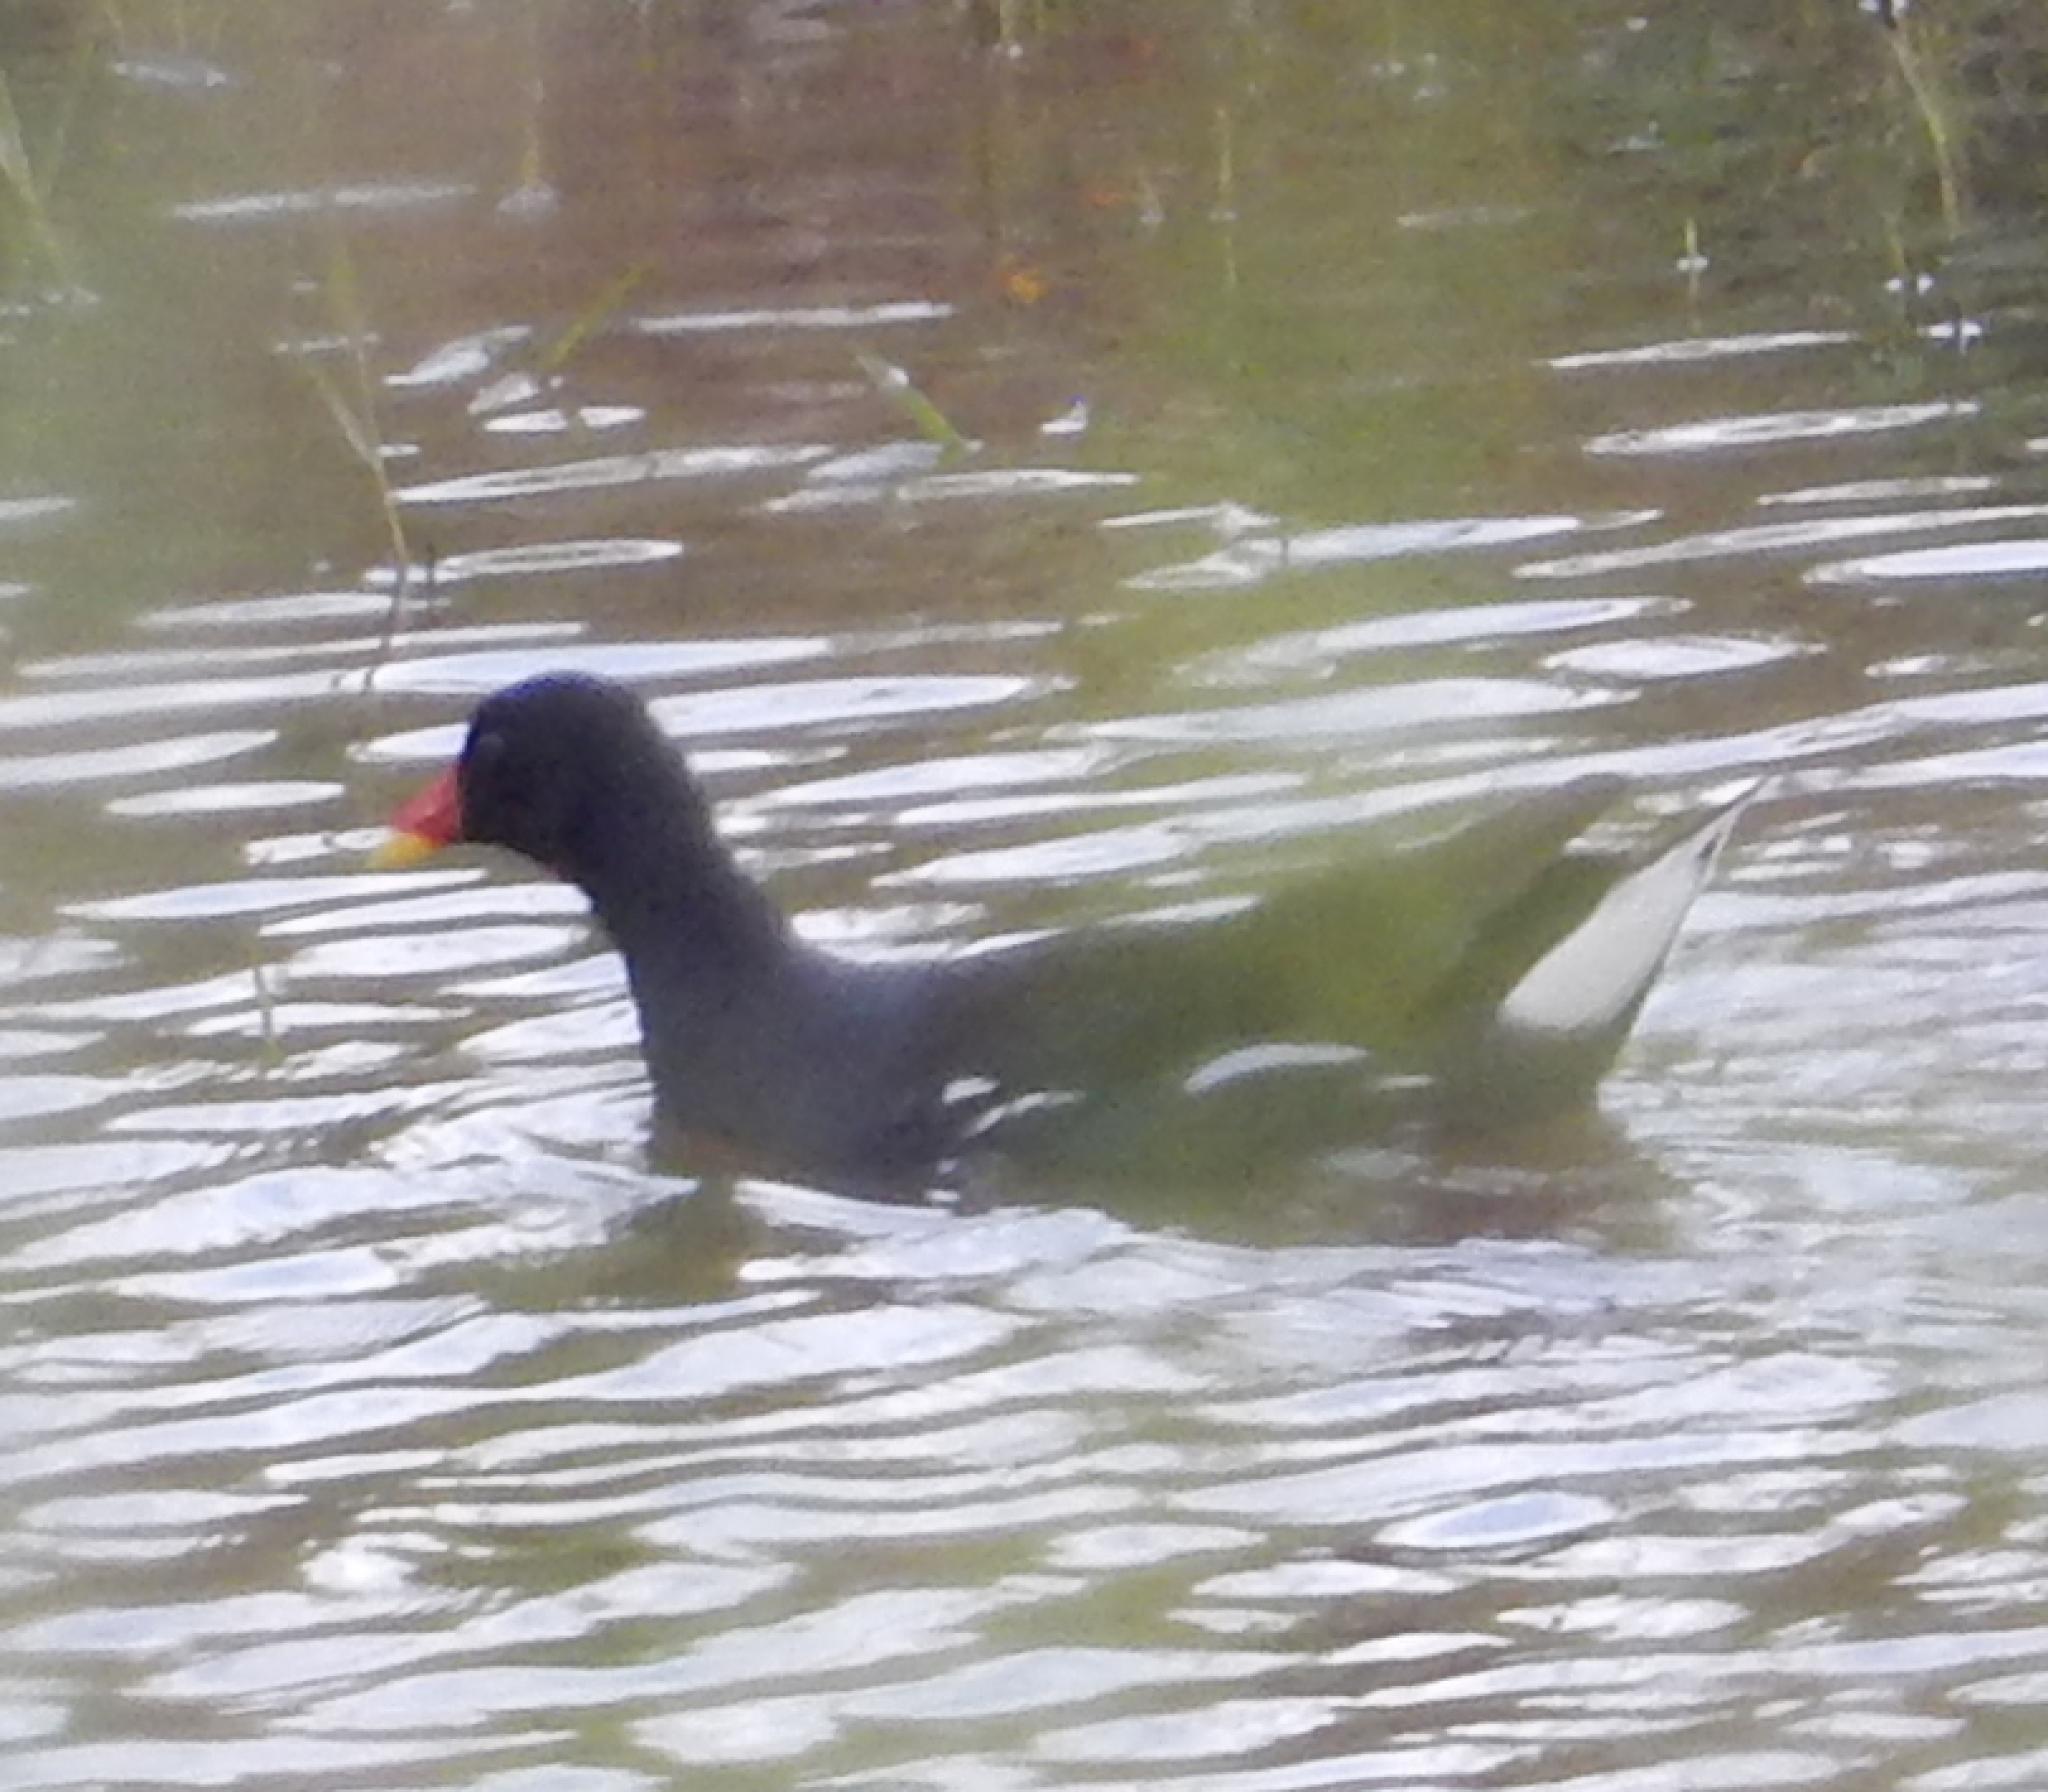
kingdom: Animalia
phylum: Chordata
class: Aves
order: Gruiformes
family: Rallidae
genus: Gallinula
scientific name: Gallinula chloropus
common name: Common moorhen
